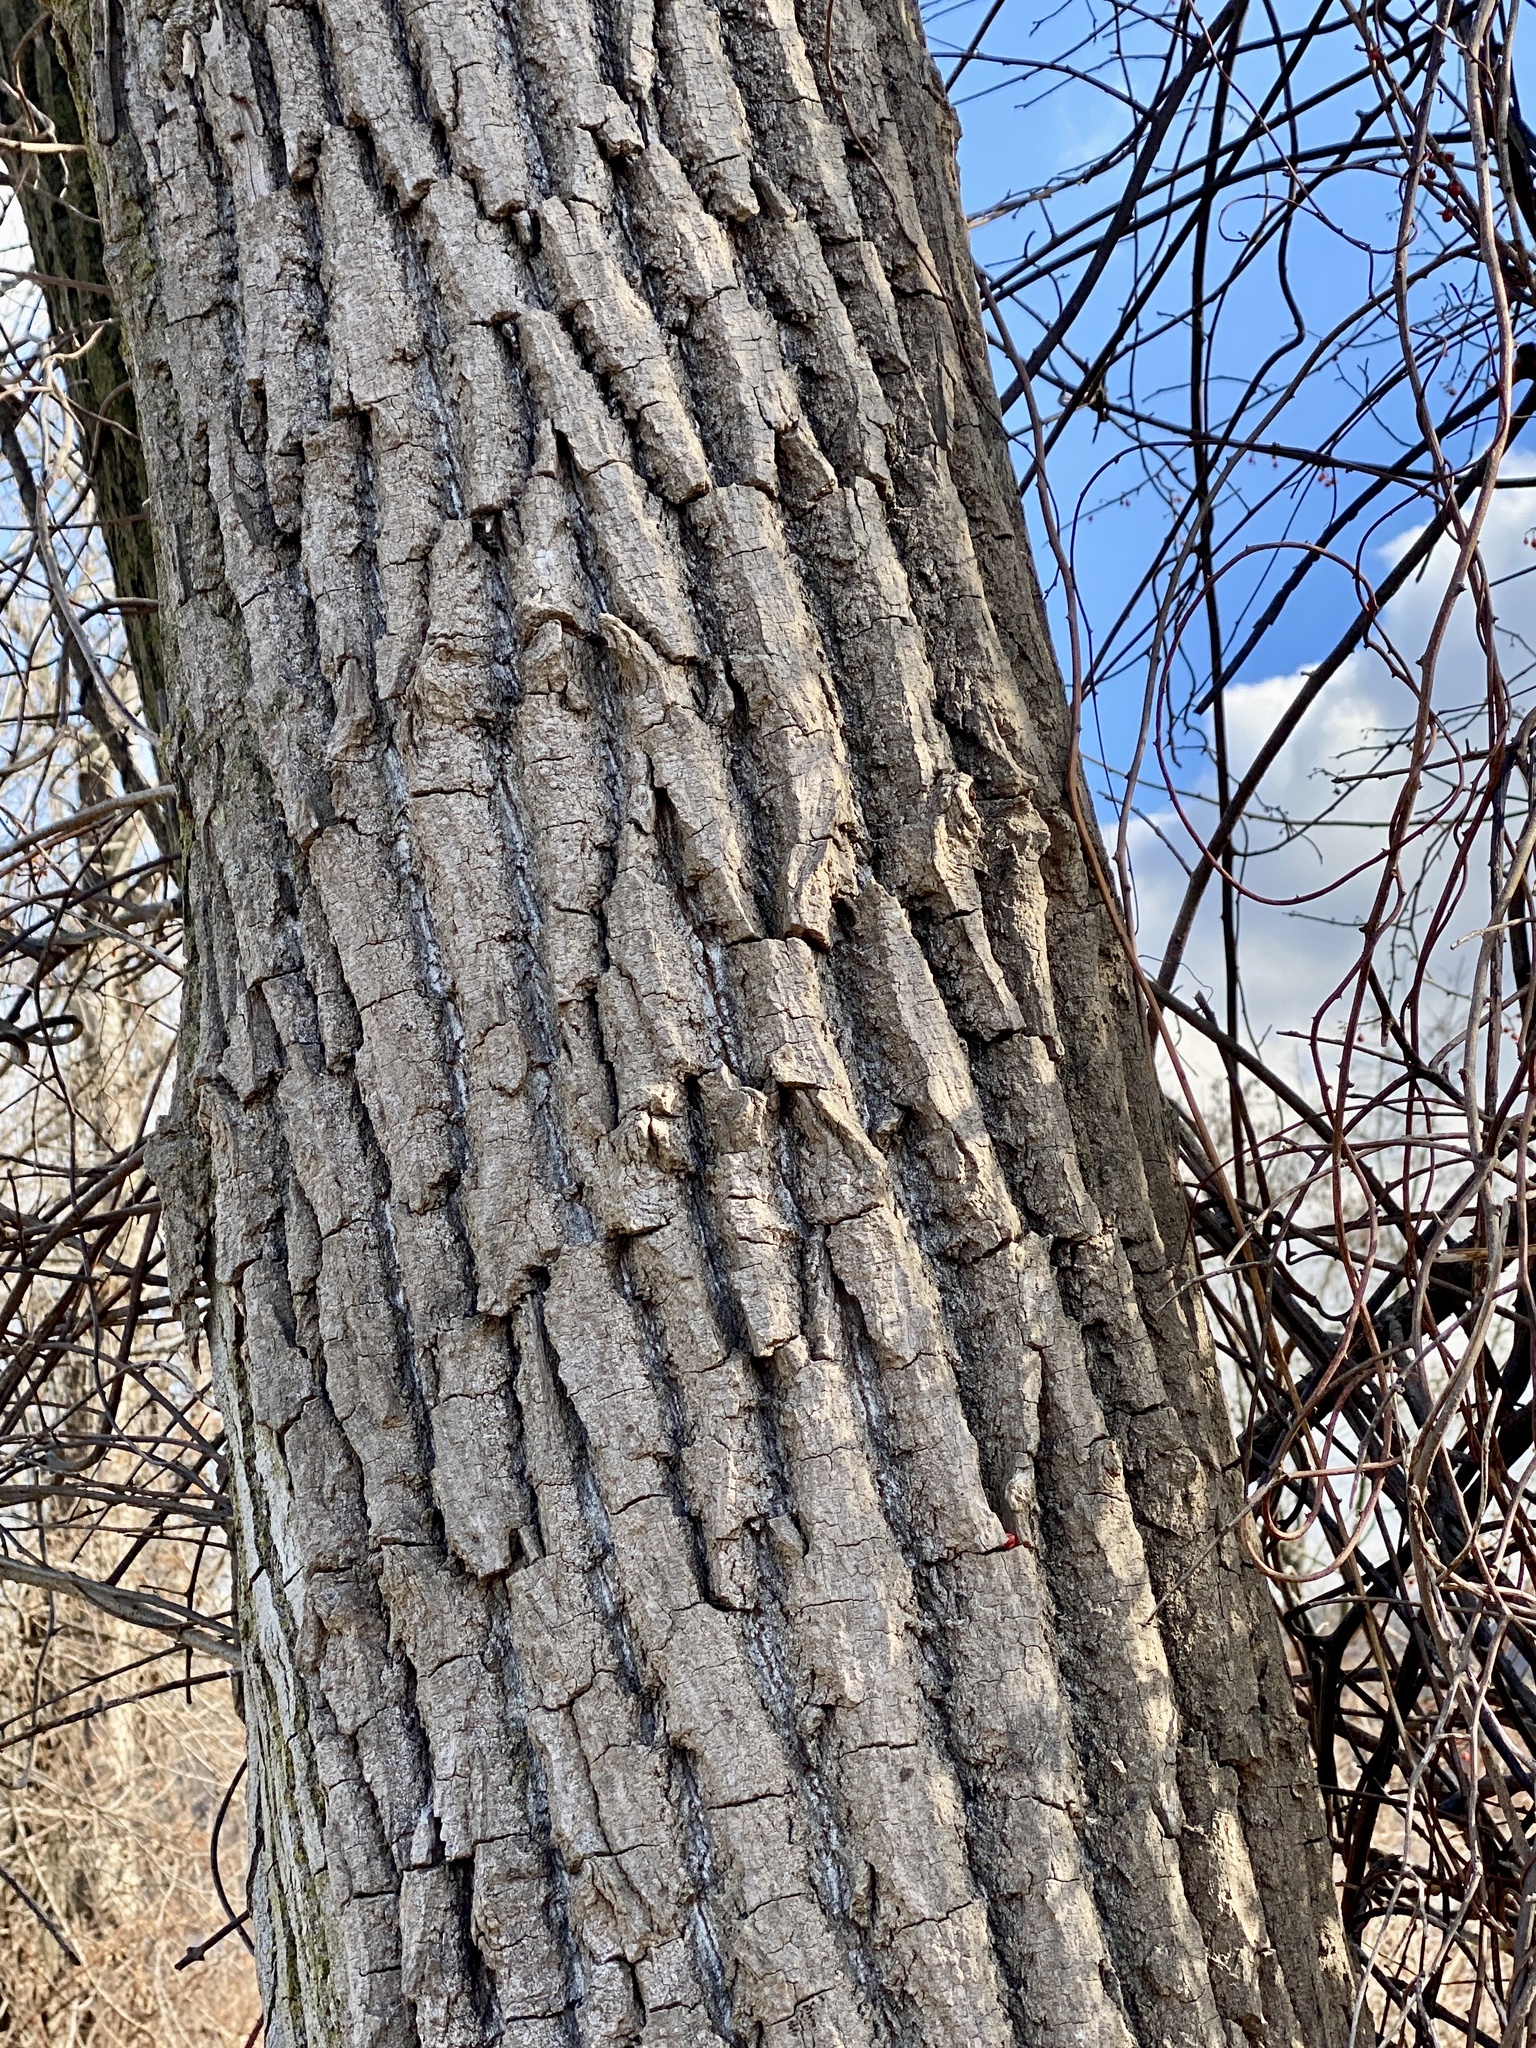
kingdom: Plantae
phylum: Tracheophyta
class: Magnoliopsida
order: Malpighiales
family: Salicaceae
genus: Populus
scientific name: Populus deltoides
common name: Eastern cottonwood
